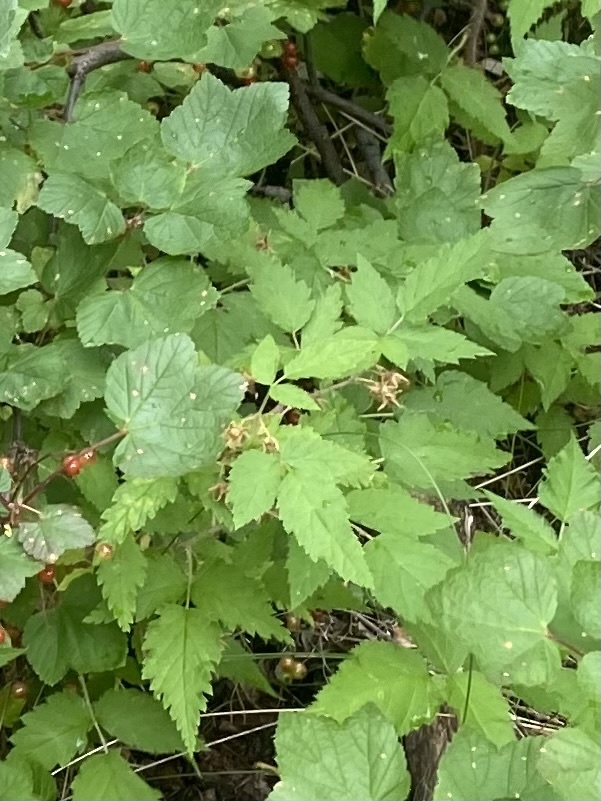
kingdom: Plantae
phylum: Tracheophyta
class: Magnoliopsida
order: Rosales
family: Rosaceae
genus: Rubus
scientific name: Rubus sachalinensis
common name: Red raspberry
